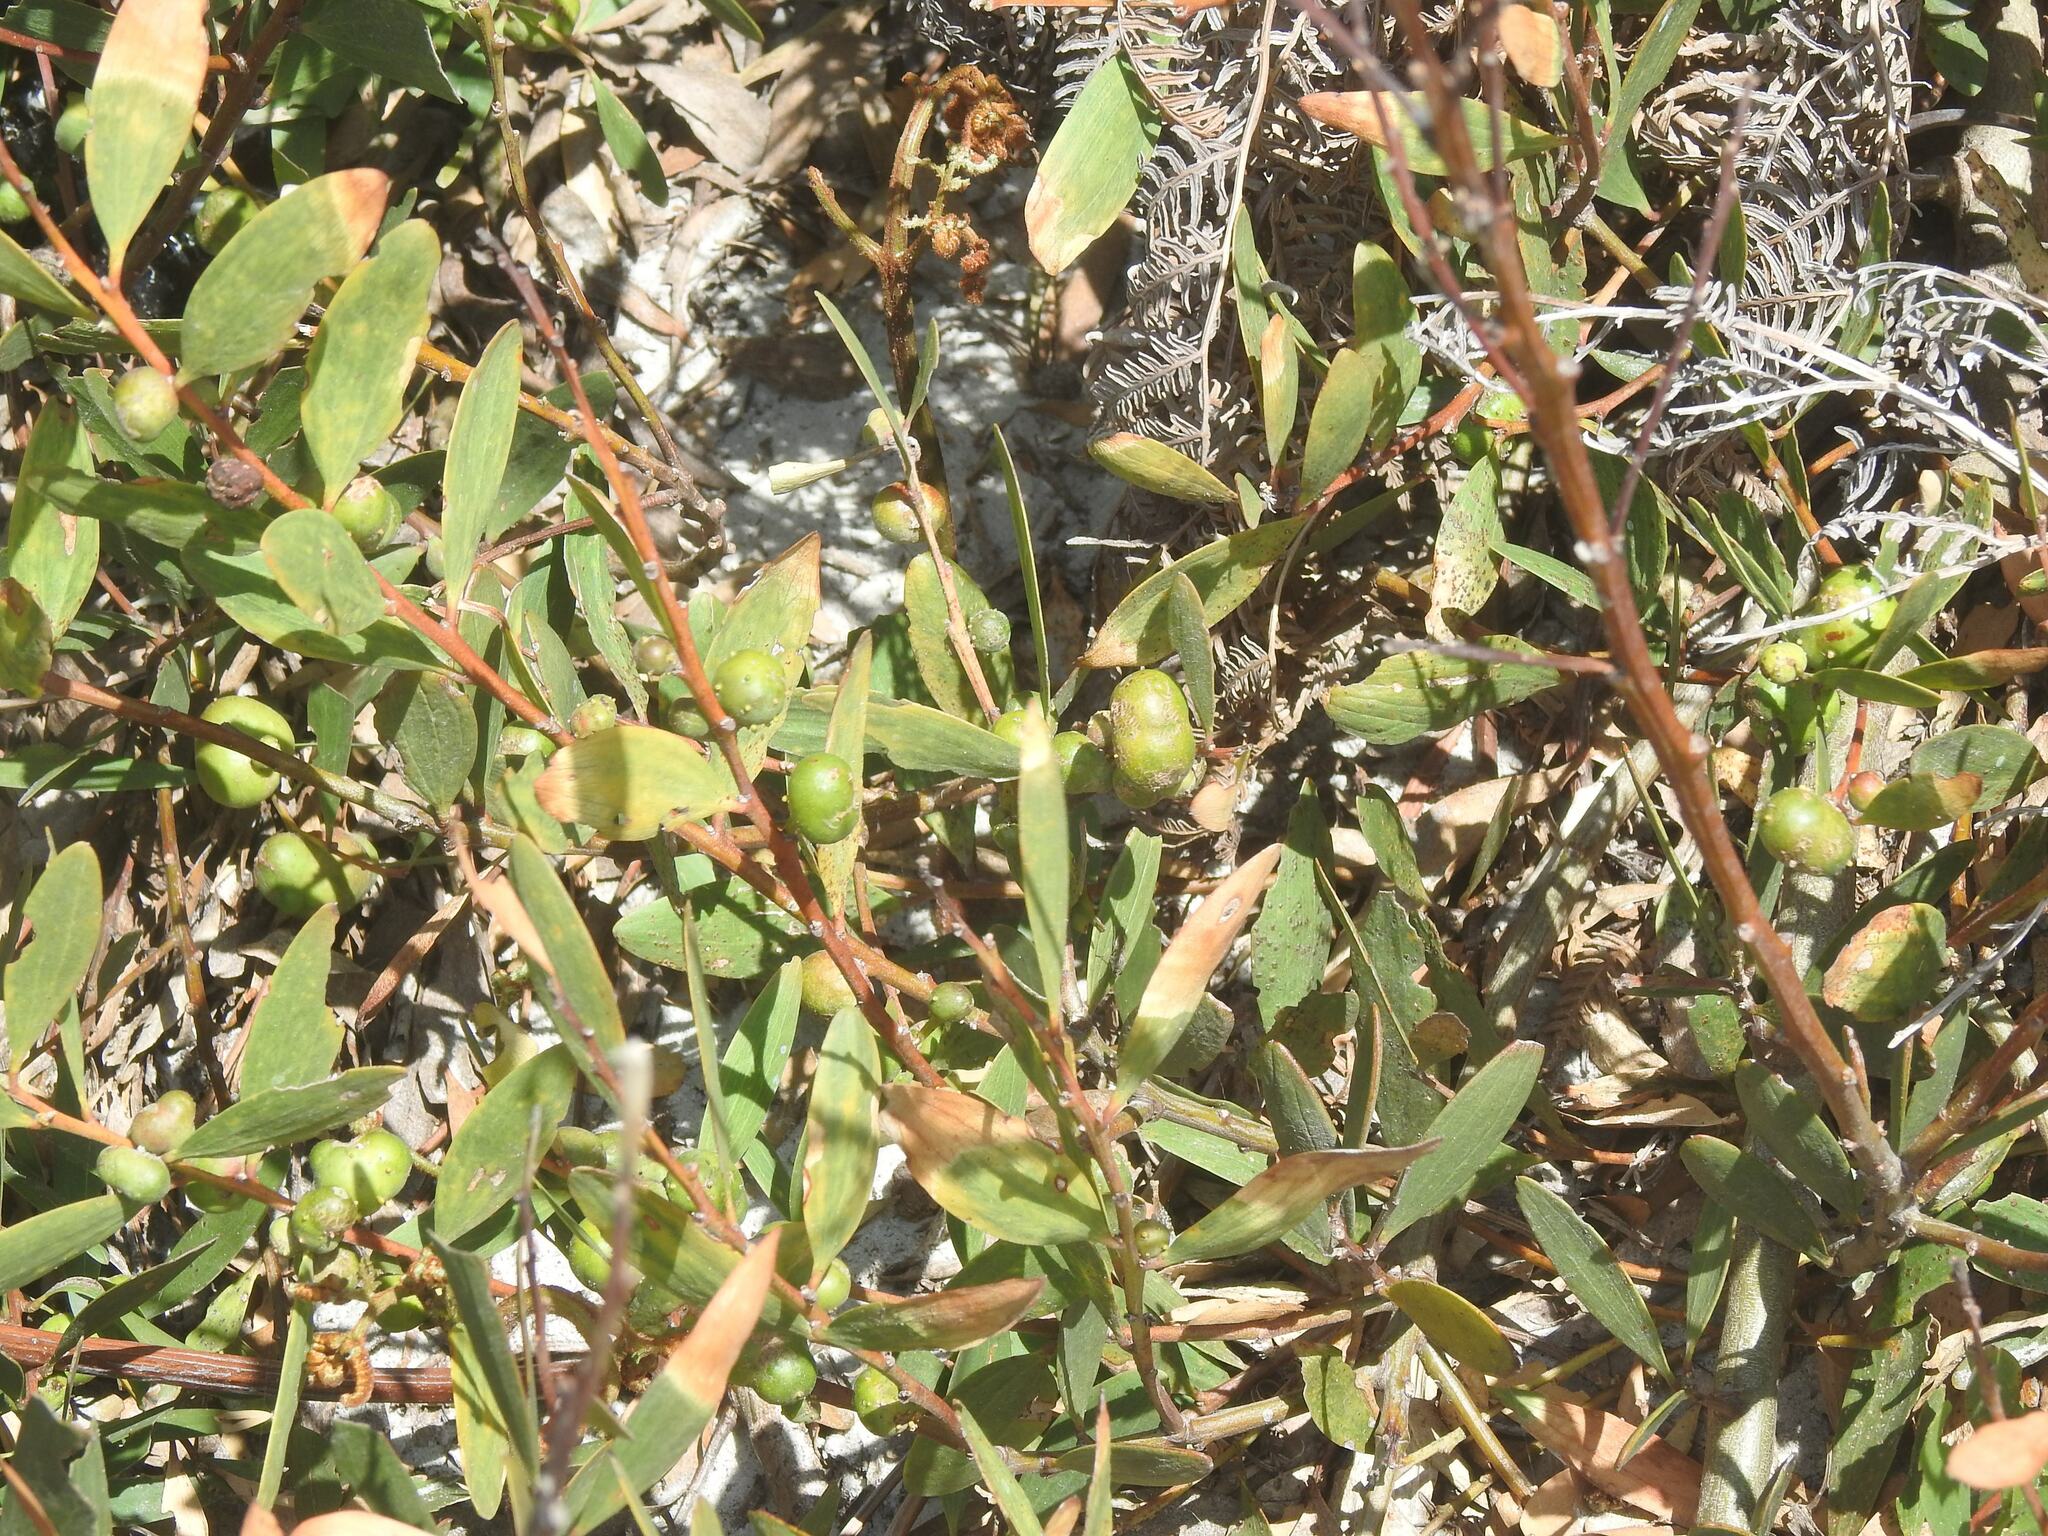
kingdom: Plantae
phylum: Tracheophyta
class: Magnoliopsida
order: Fabales
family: Fabaceae
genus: Acacia
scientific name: Acacia longifolia
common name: Sydney golden wattle
